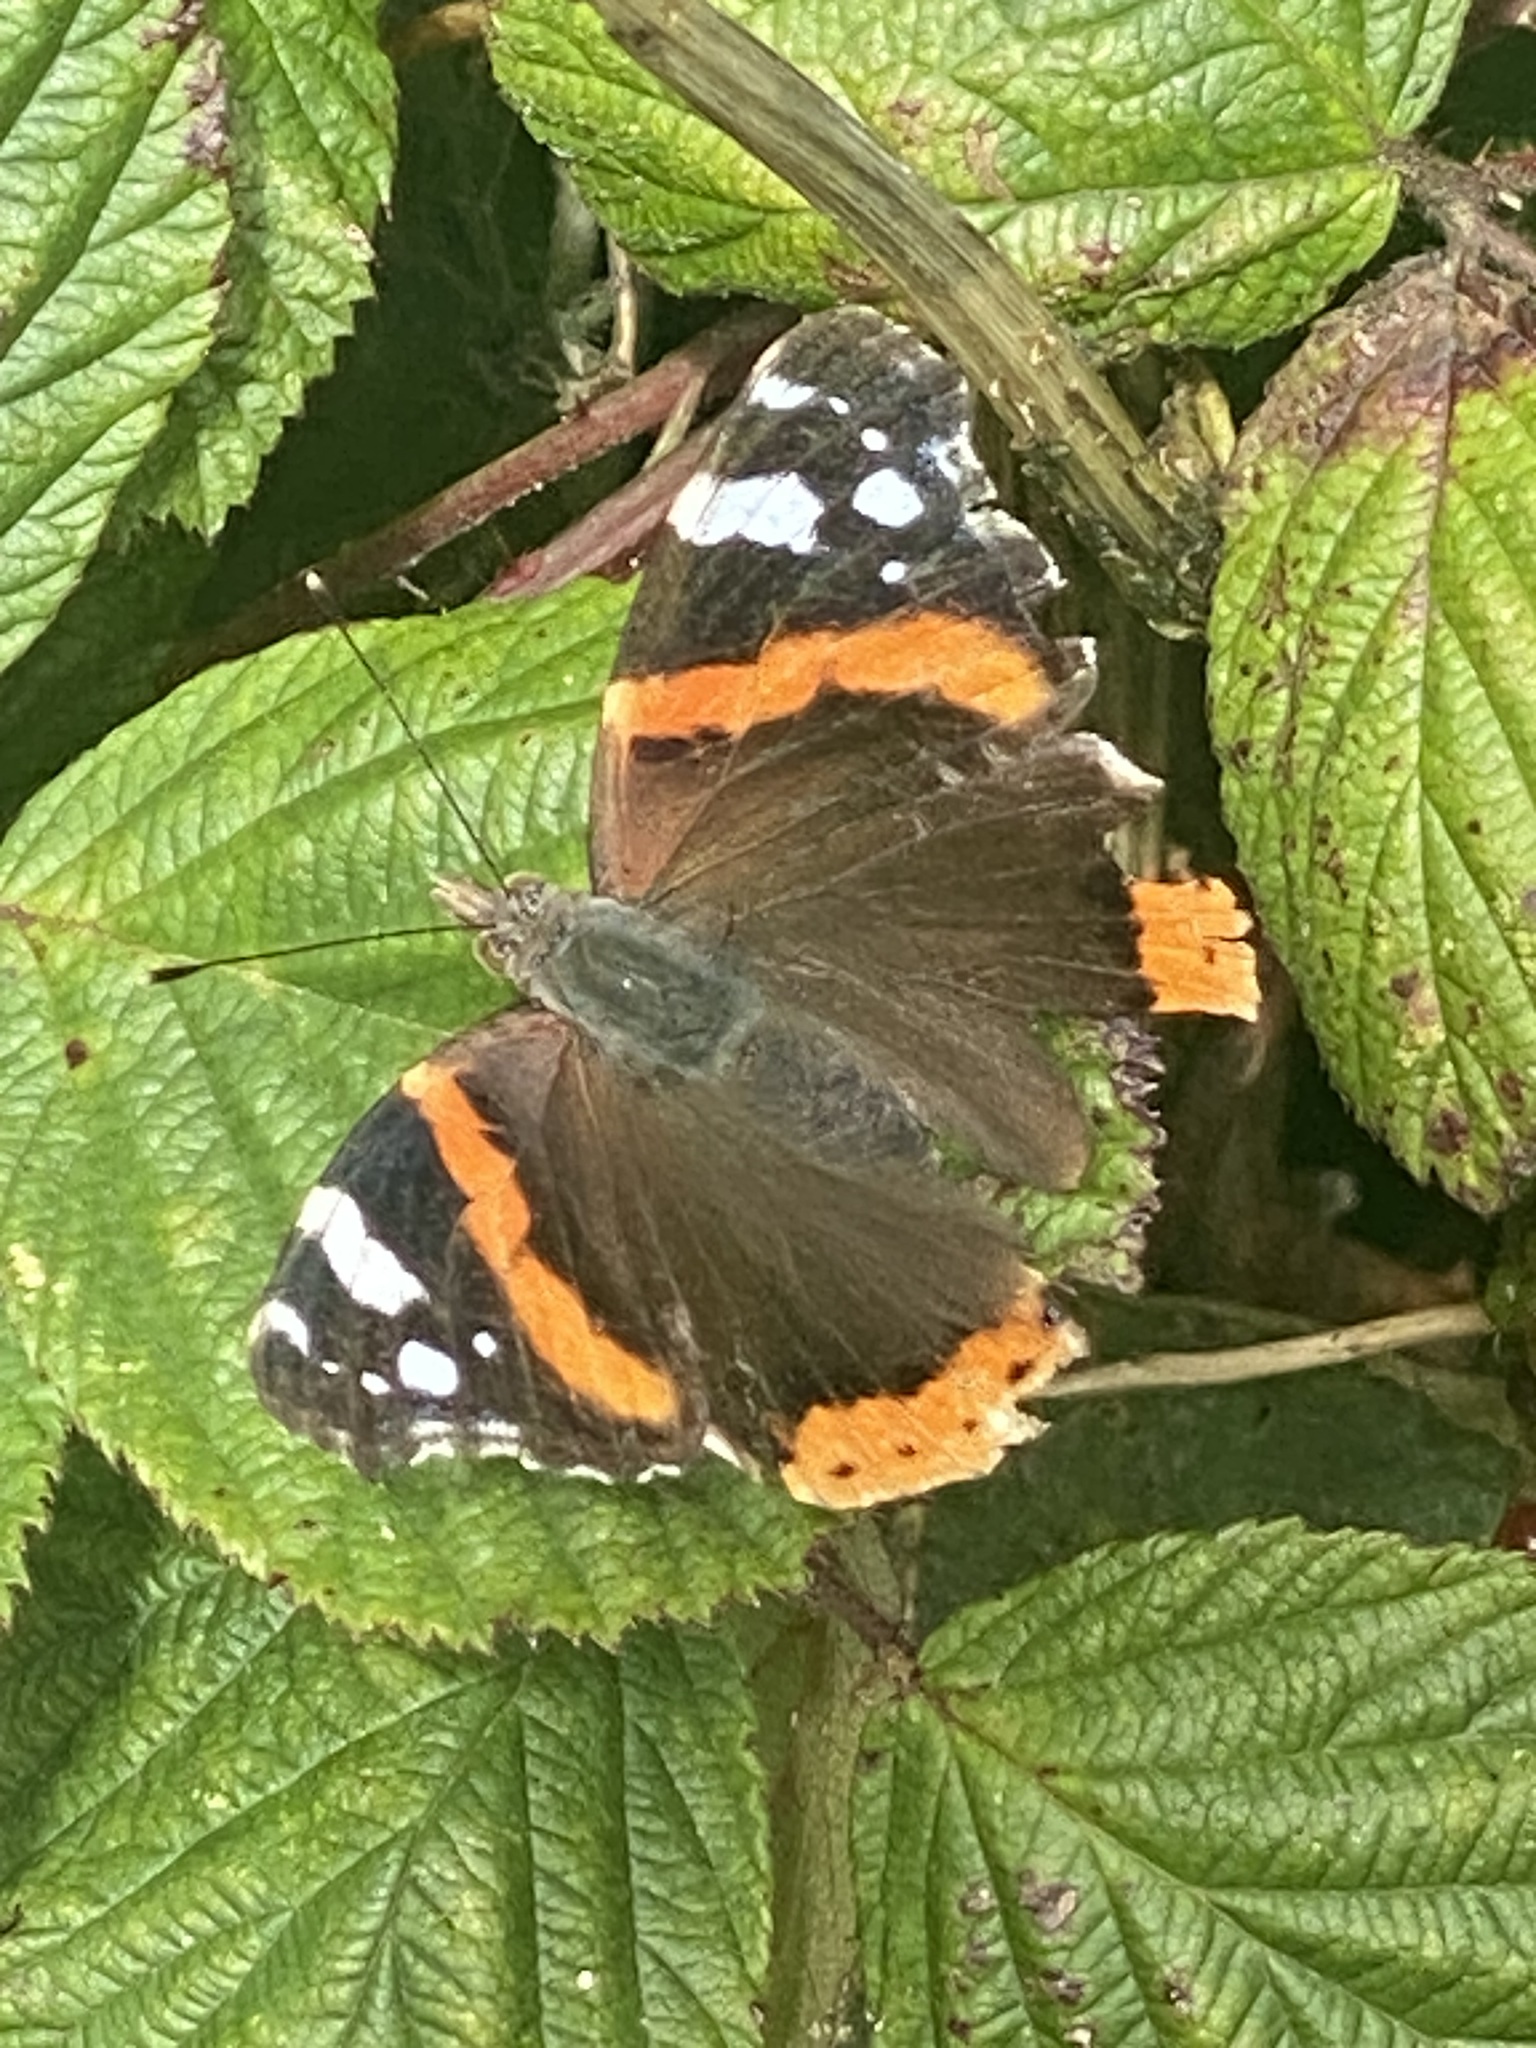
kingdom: Animalia
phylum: Arthropoda
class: Insecta
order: Lepidoptera
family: Nymphalidae
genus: Vanessa
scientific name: Vanessa atalanta
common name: Red admiral
